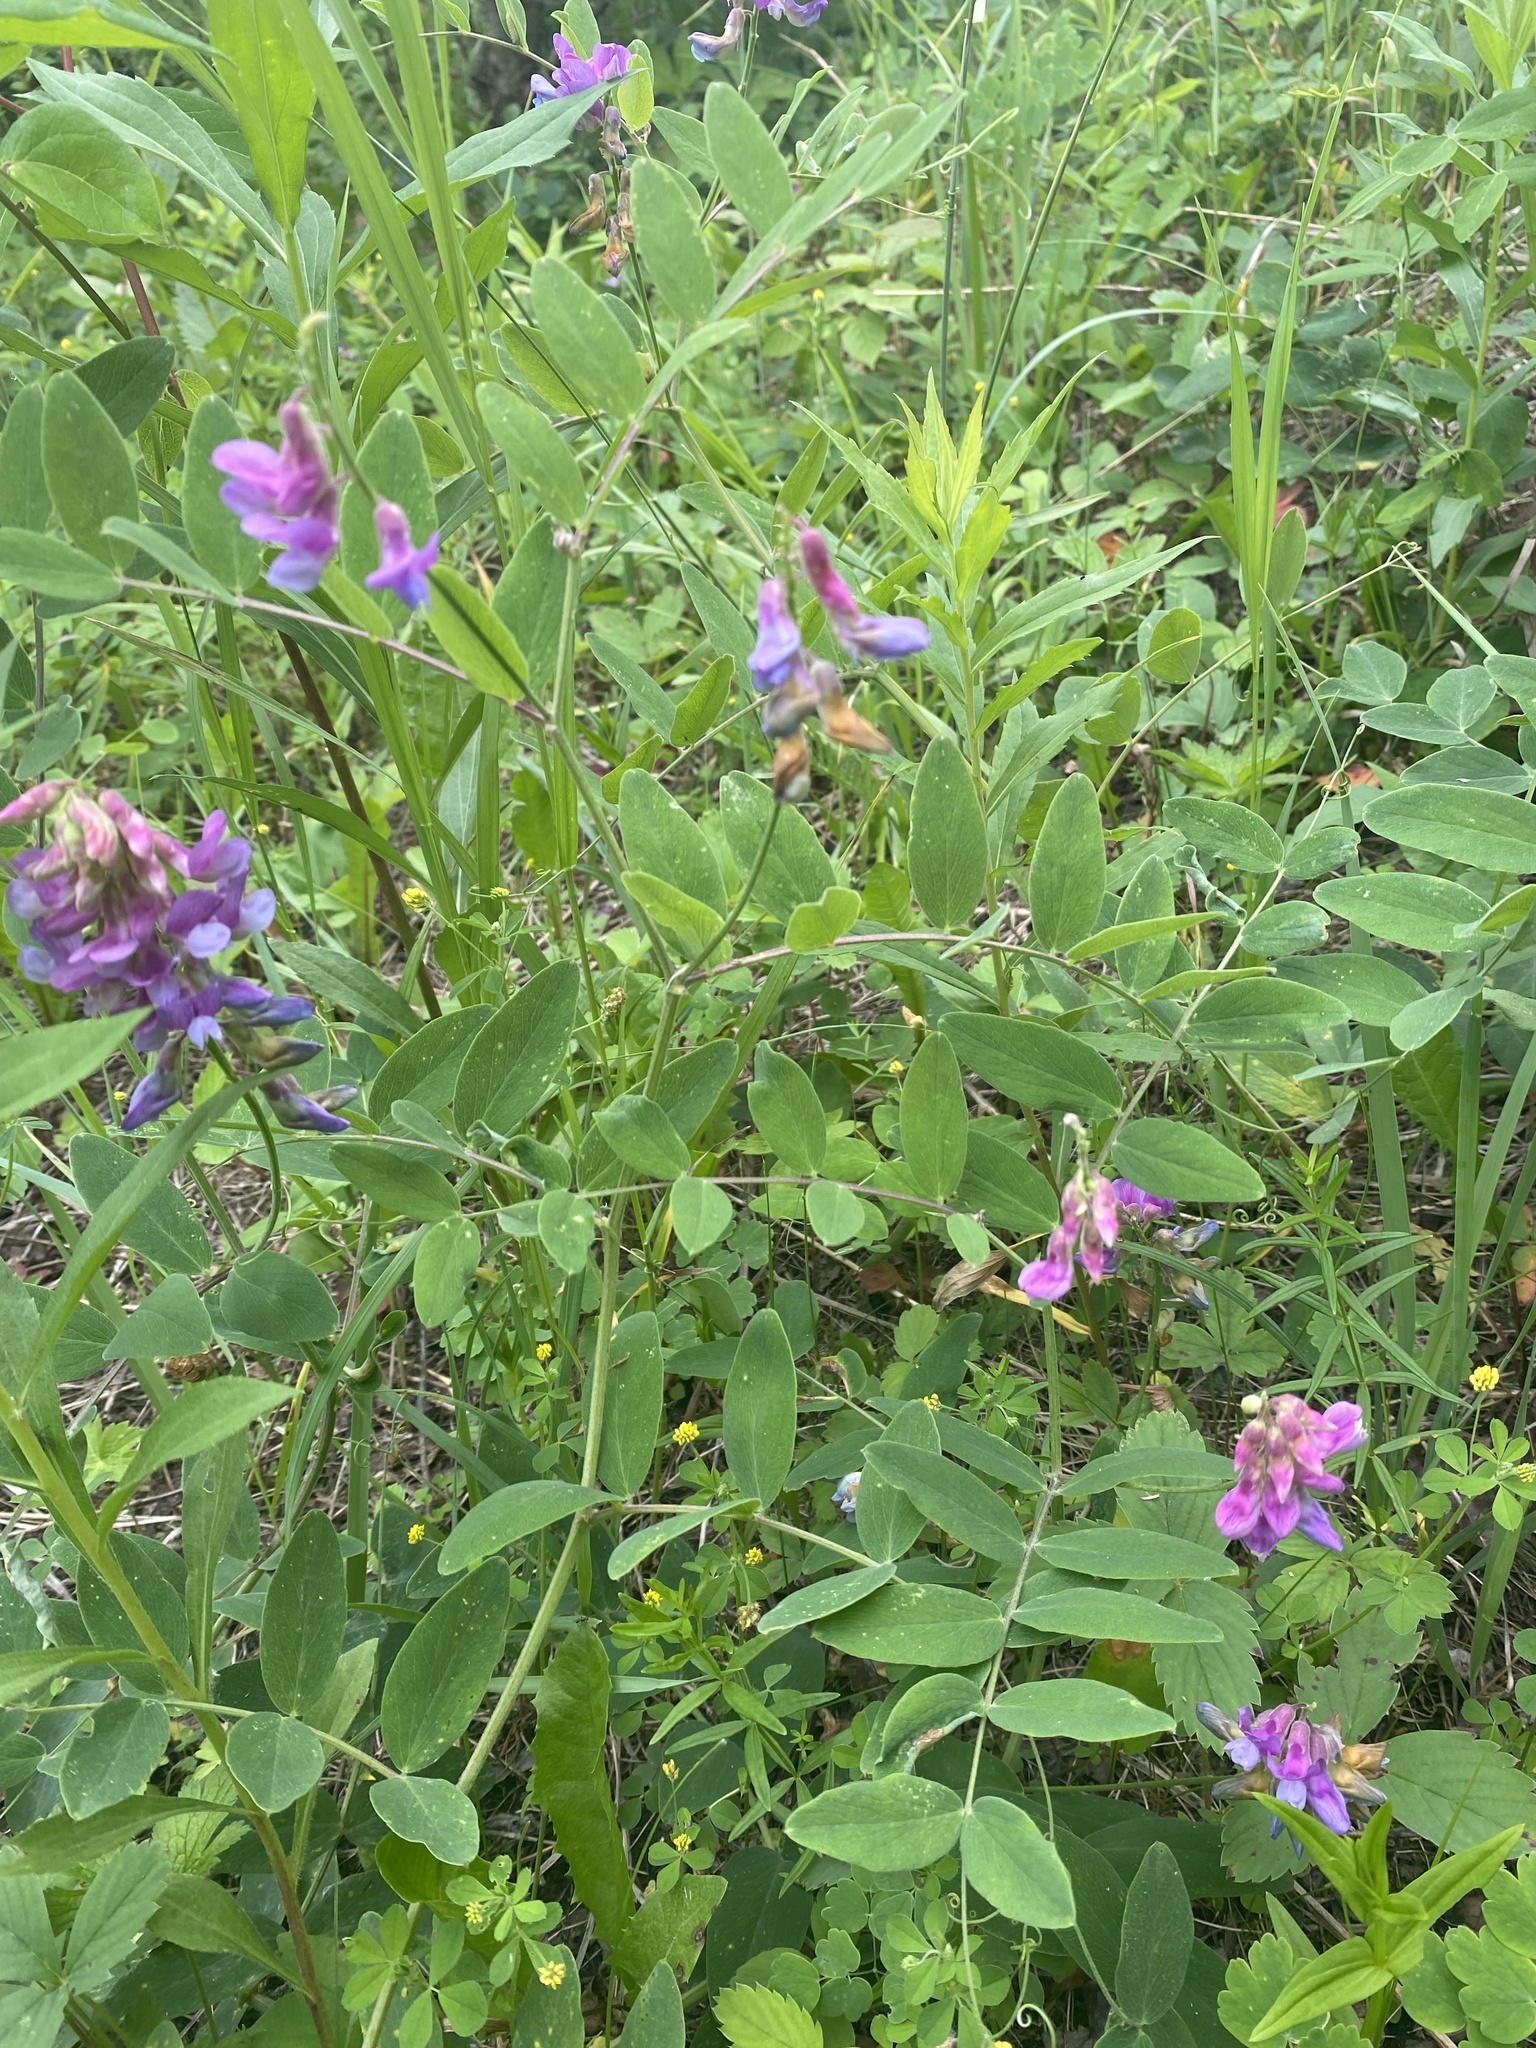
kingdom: Plantae
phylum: Tracheophyta
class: Magnoliopsida
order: Fabales
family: Fabaceae
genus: Lathyrus
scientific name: Lathyrus venosus
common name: Forest-pea
